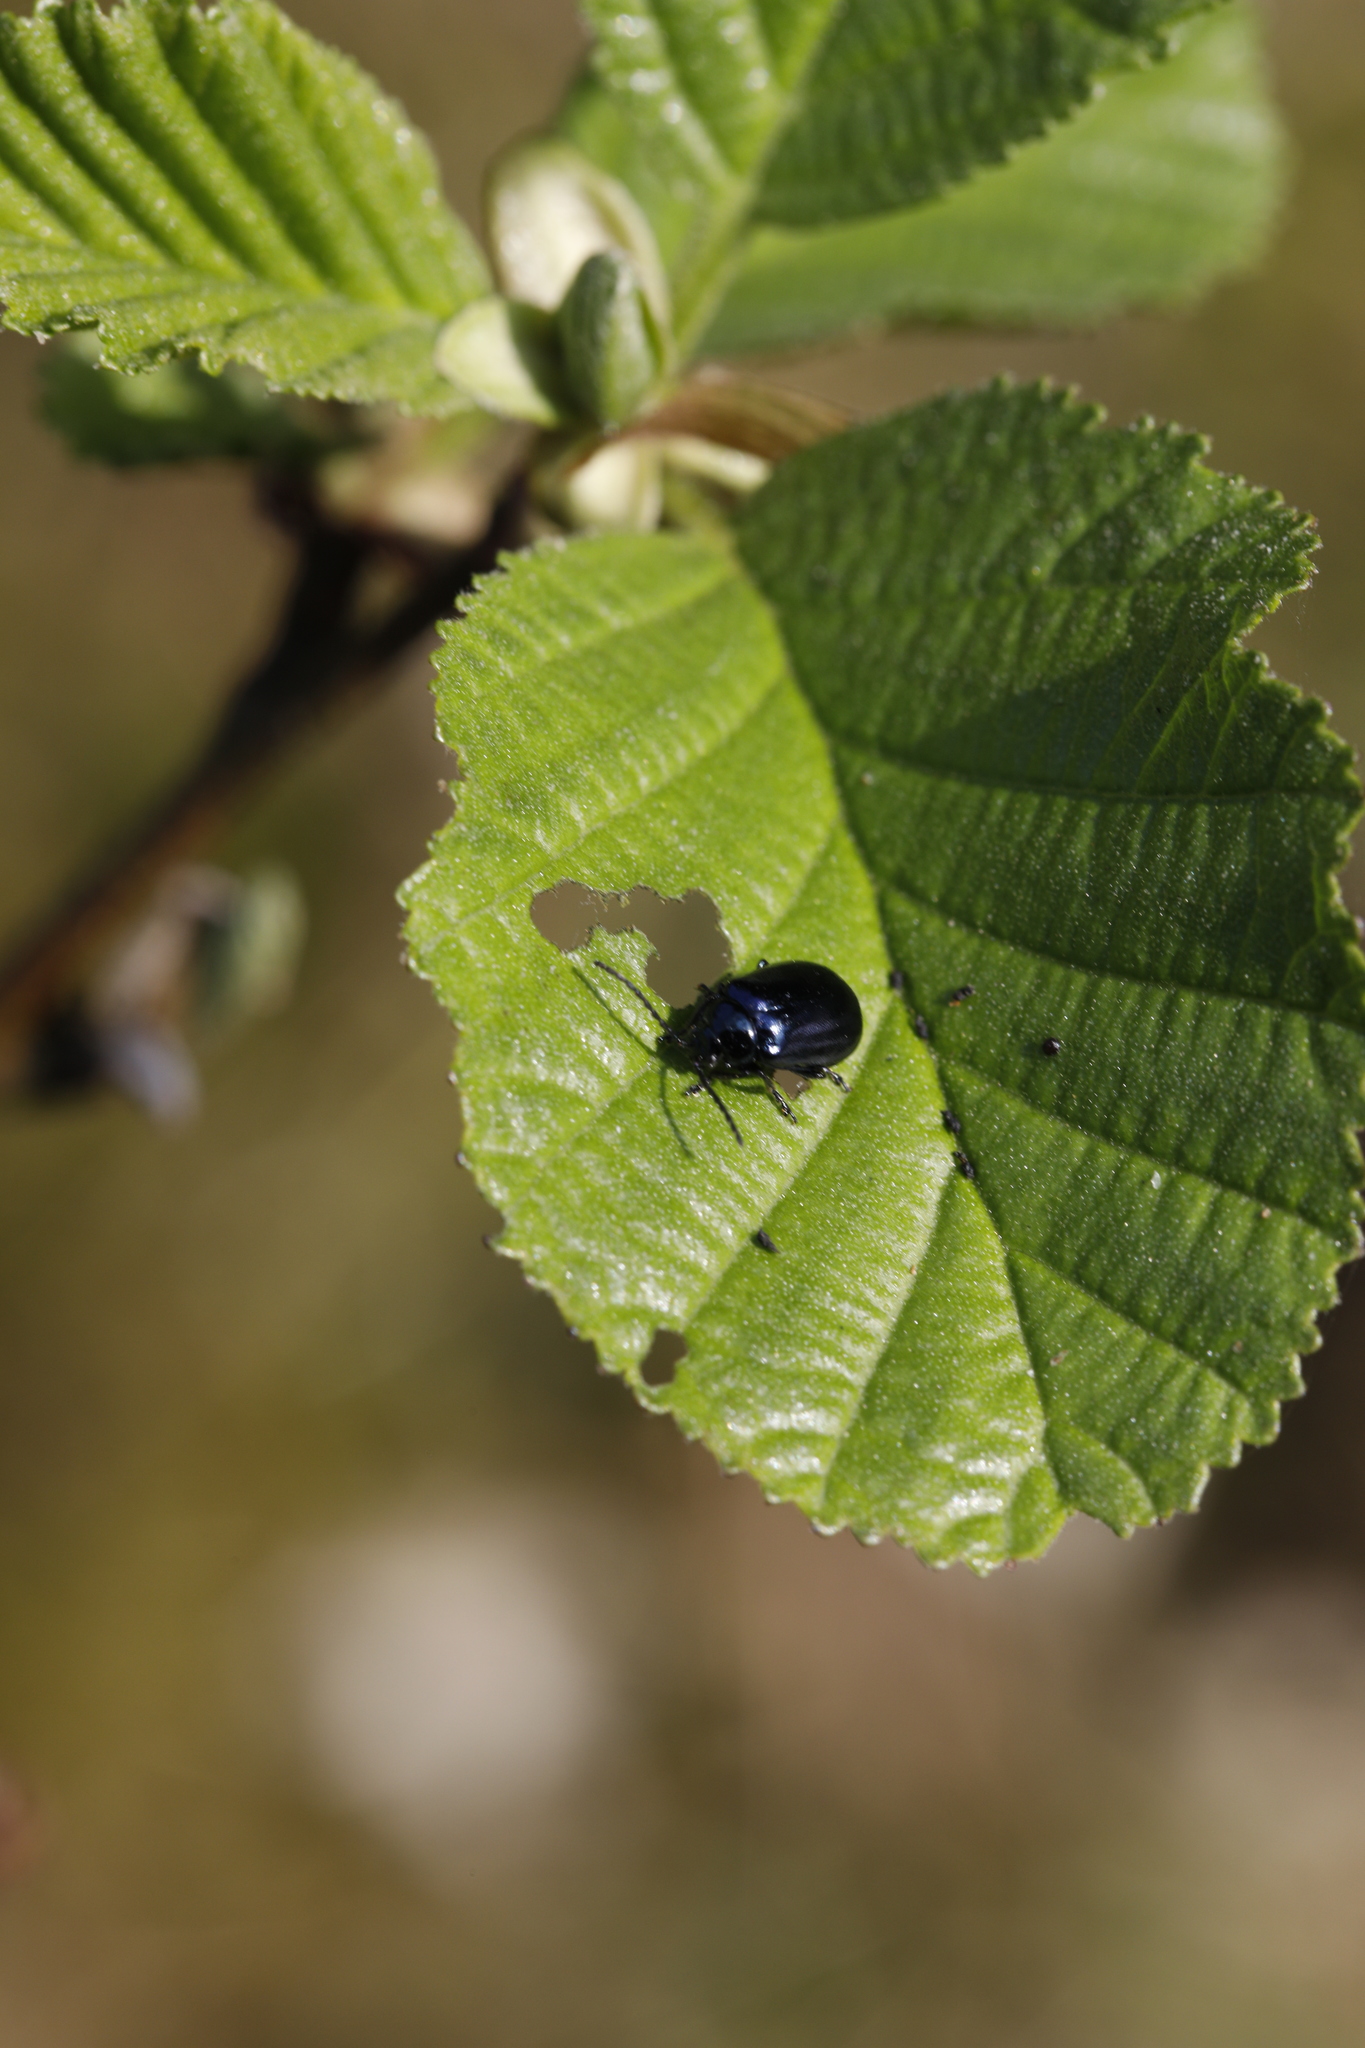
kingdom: Animalia
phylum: Arthropoda
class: Insecta
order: Coleoptera
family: Chrysomelidae
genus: Agelastica
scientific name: Agelastica alni
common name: Alder leaf beetle
